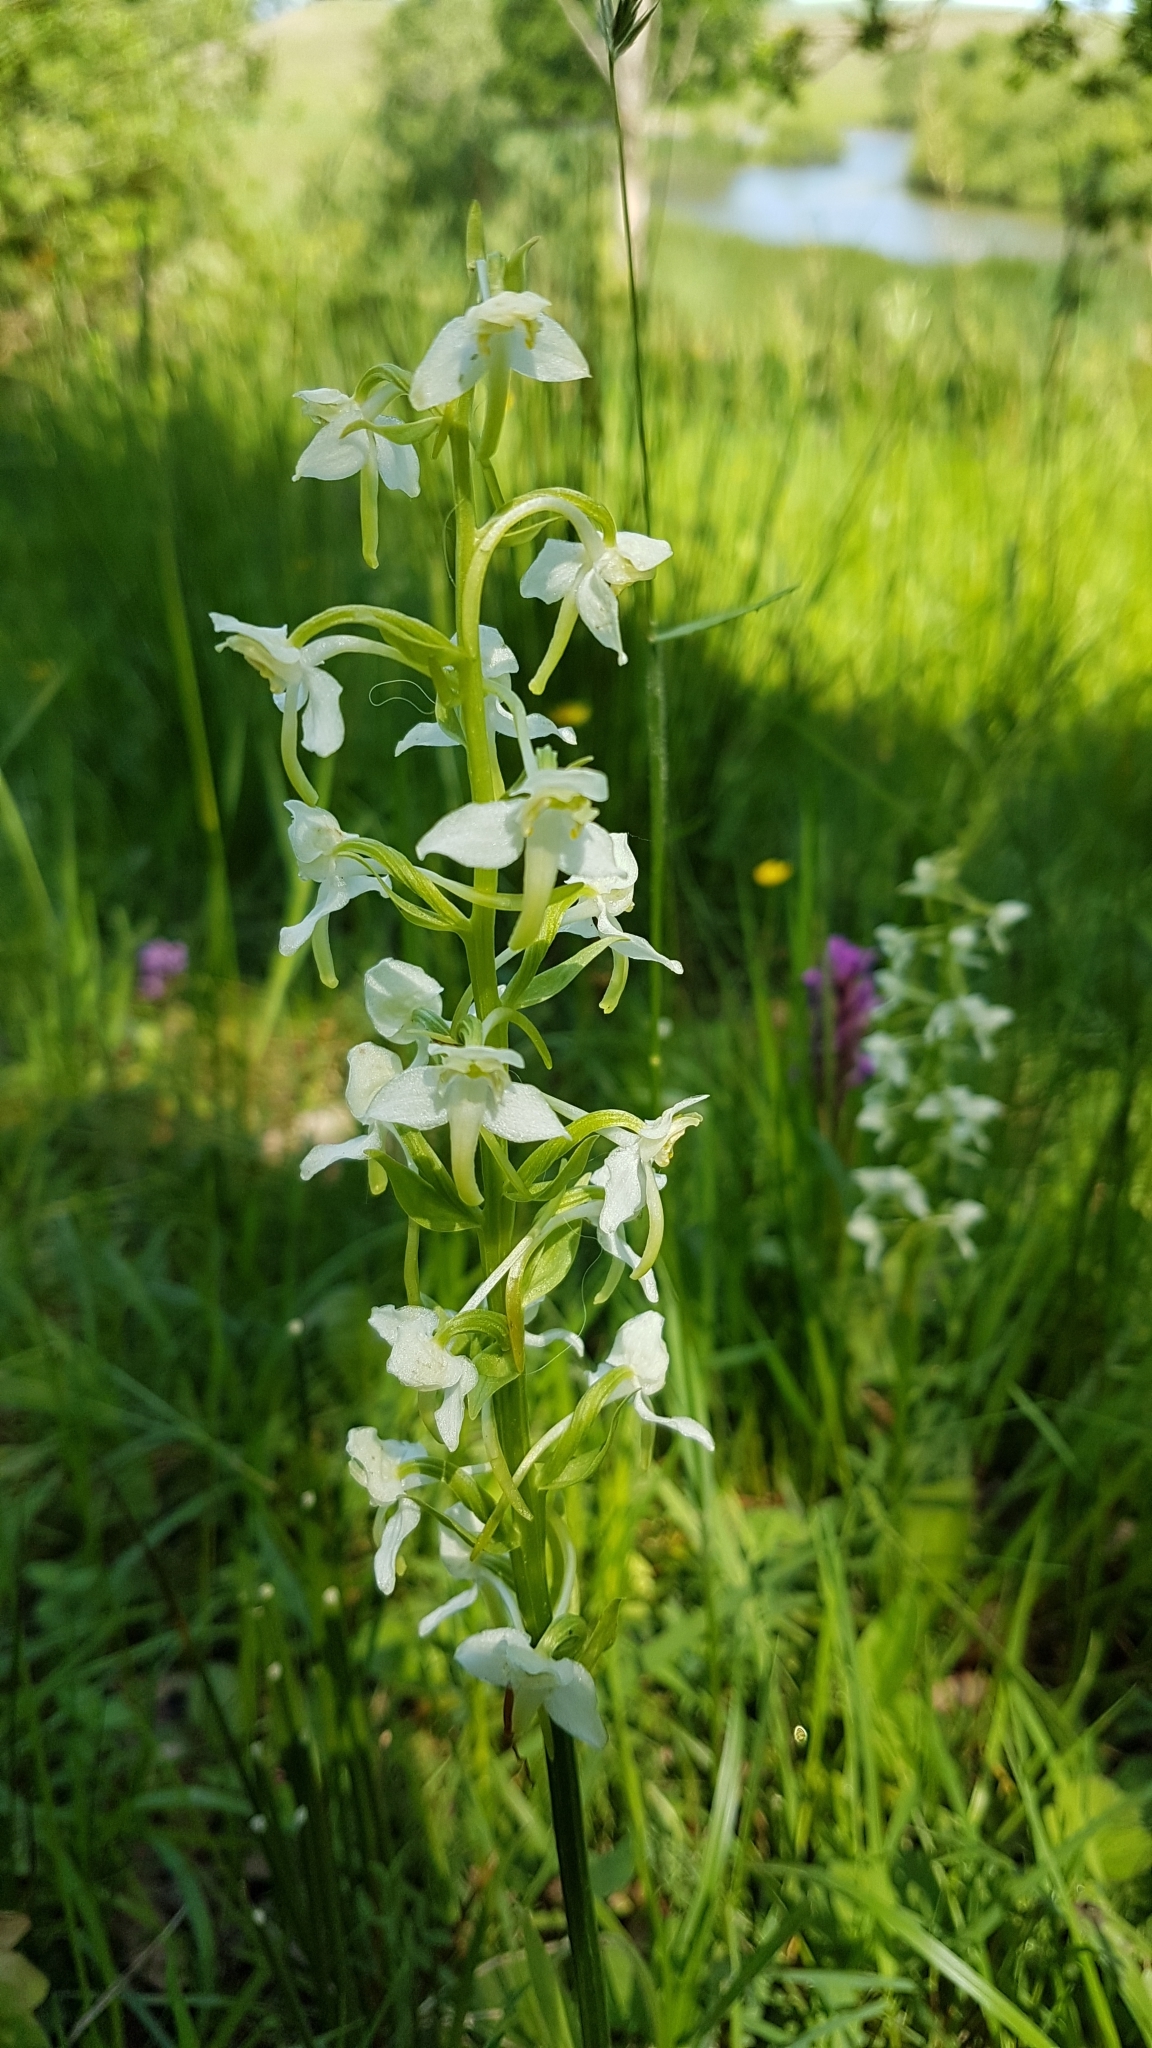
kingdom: Plantae
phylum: Tracheophyta
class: Liliopsida
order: Asparagales
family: Orchidaceae
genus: Platanthera
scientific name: Platanthera chlorantha
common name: Greater butterfly-orchid
